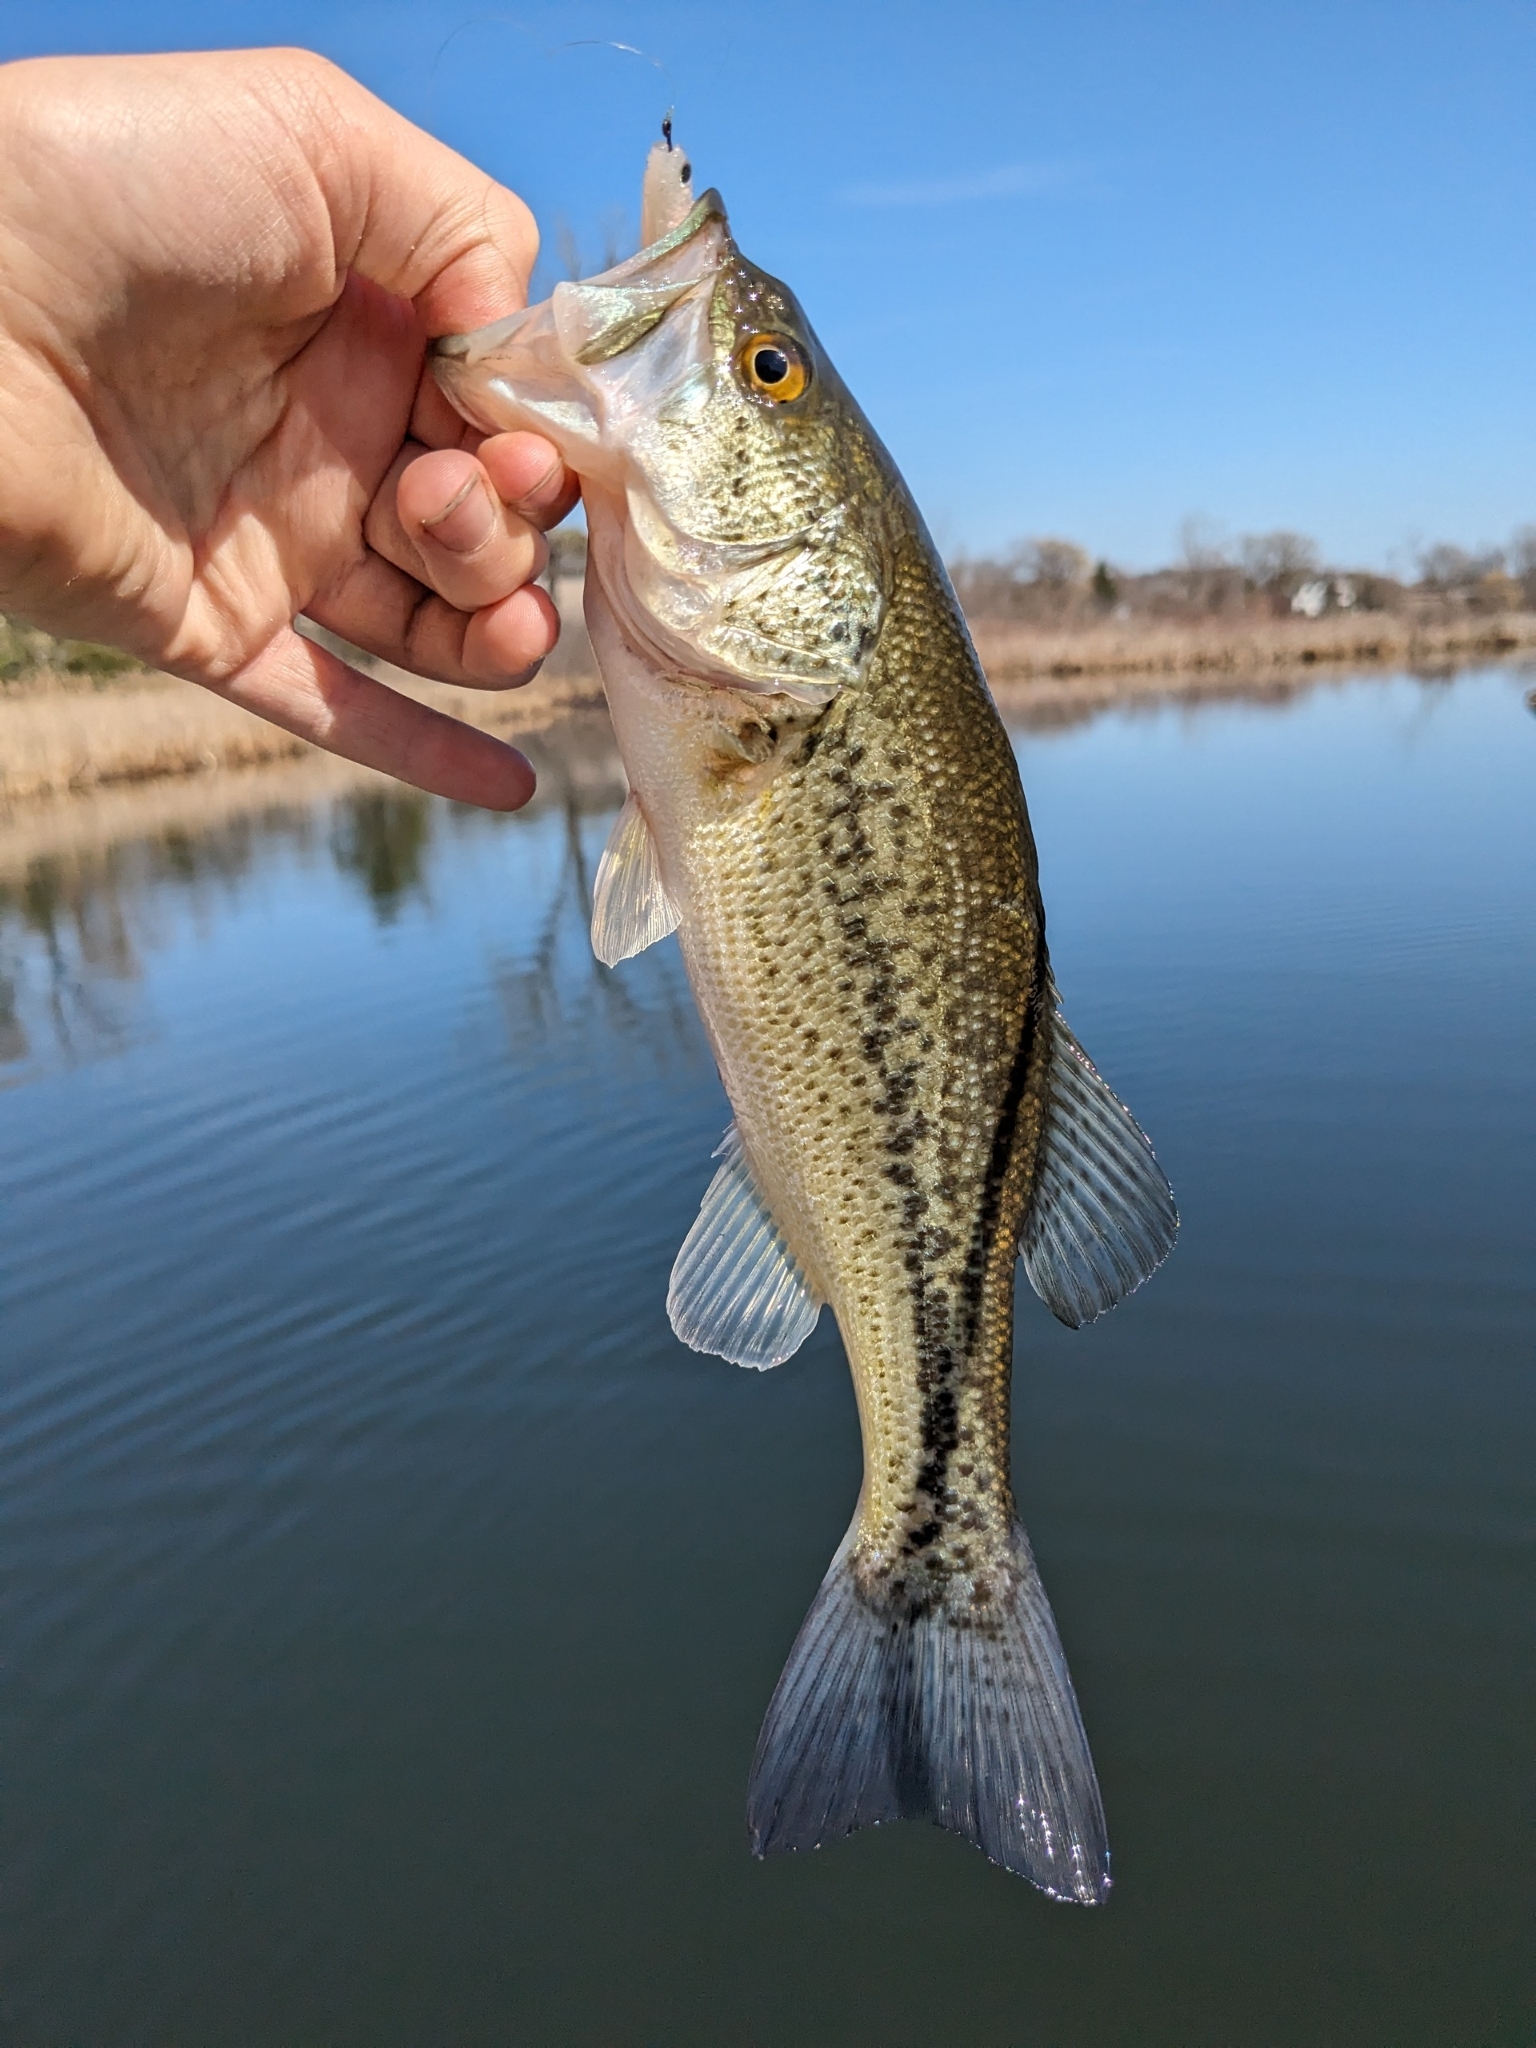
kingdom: Animalia
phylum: Chordata
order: Perciformes
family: Centrarchidae
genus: Micropterus
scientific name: Micropterus
